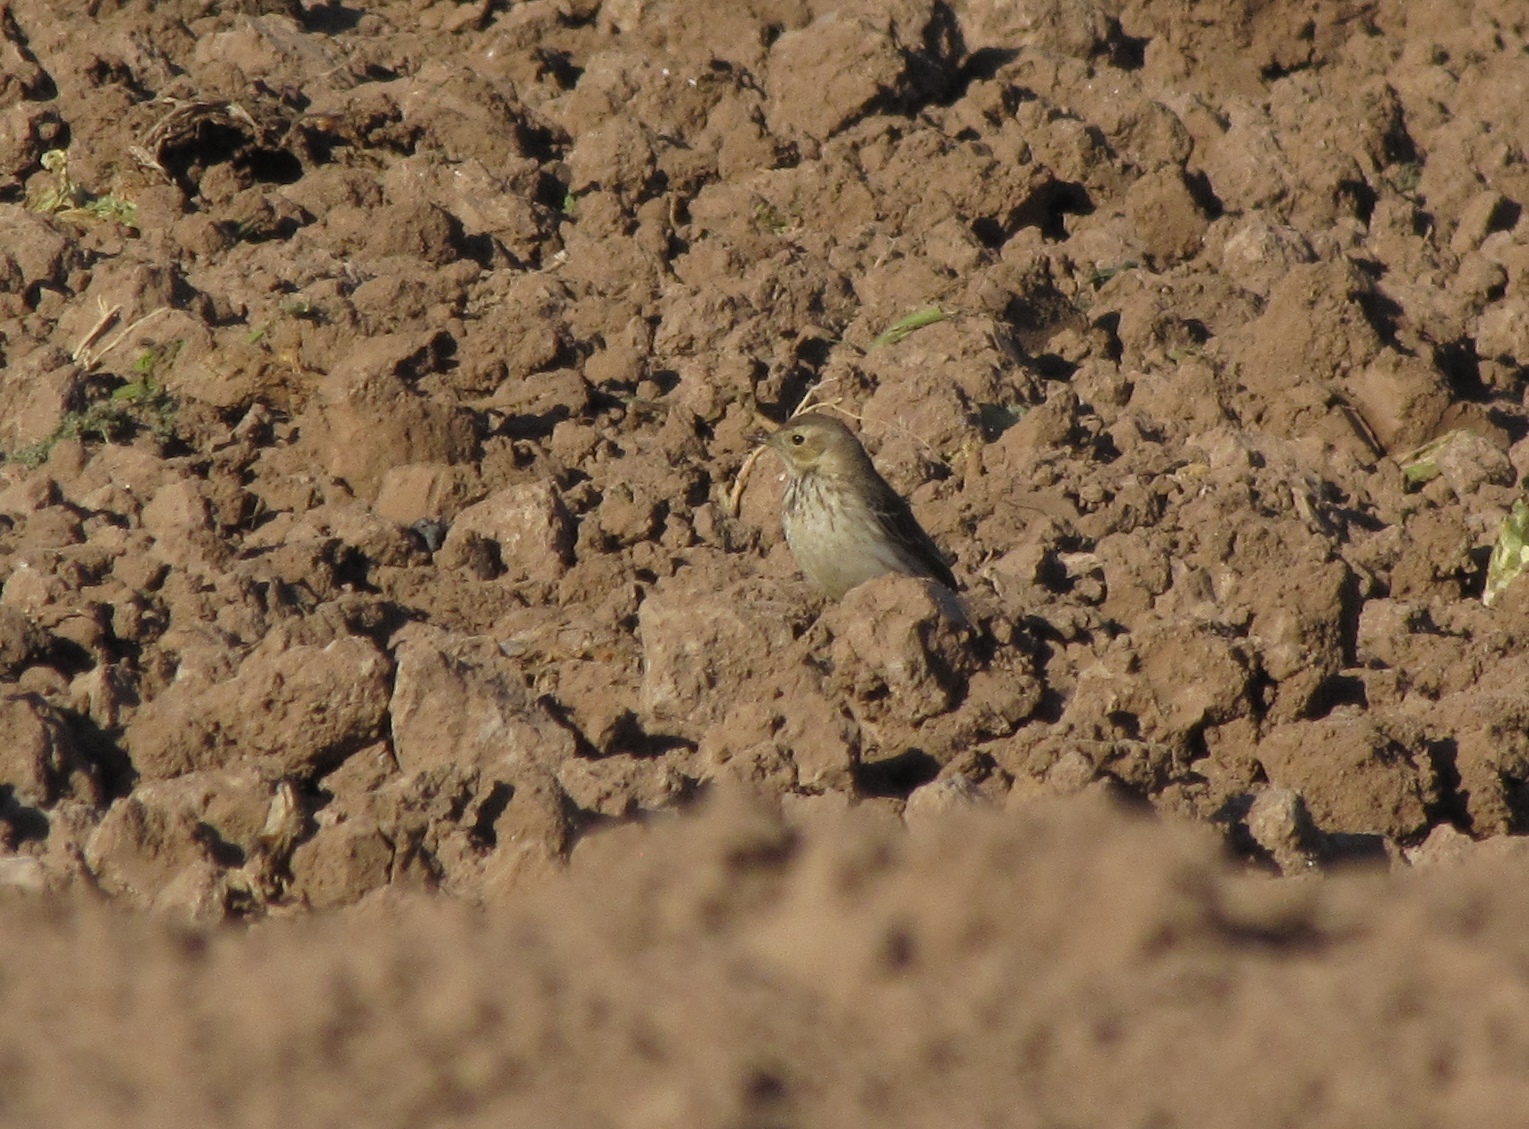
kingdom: Animalia
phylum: Chordata
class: Aves
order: Passeriformes
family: Motacillidae
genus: Anthus
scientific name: Anthus rubescens
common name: Buff-bellied pipit
